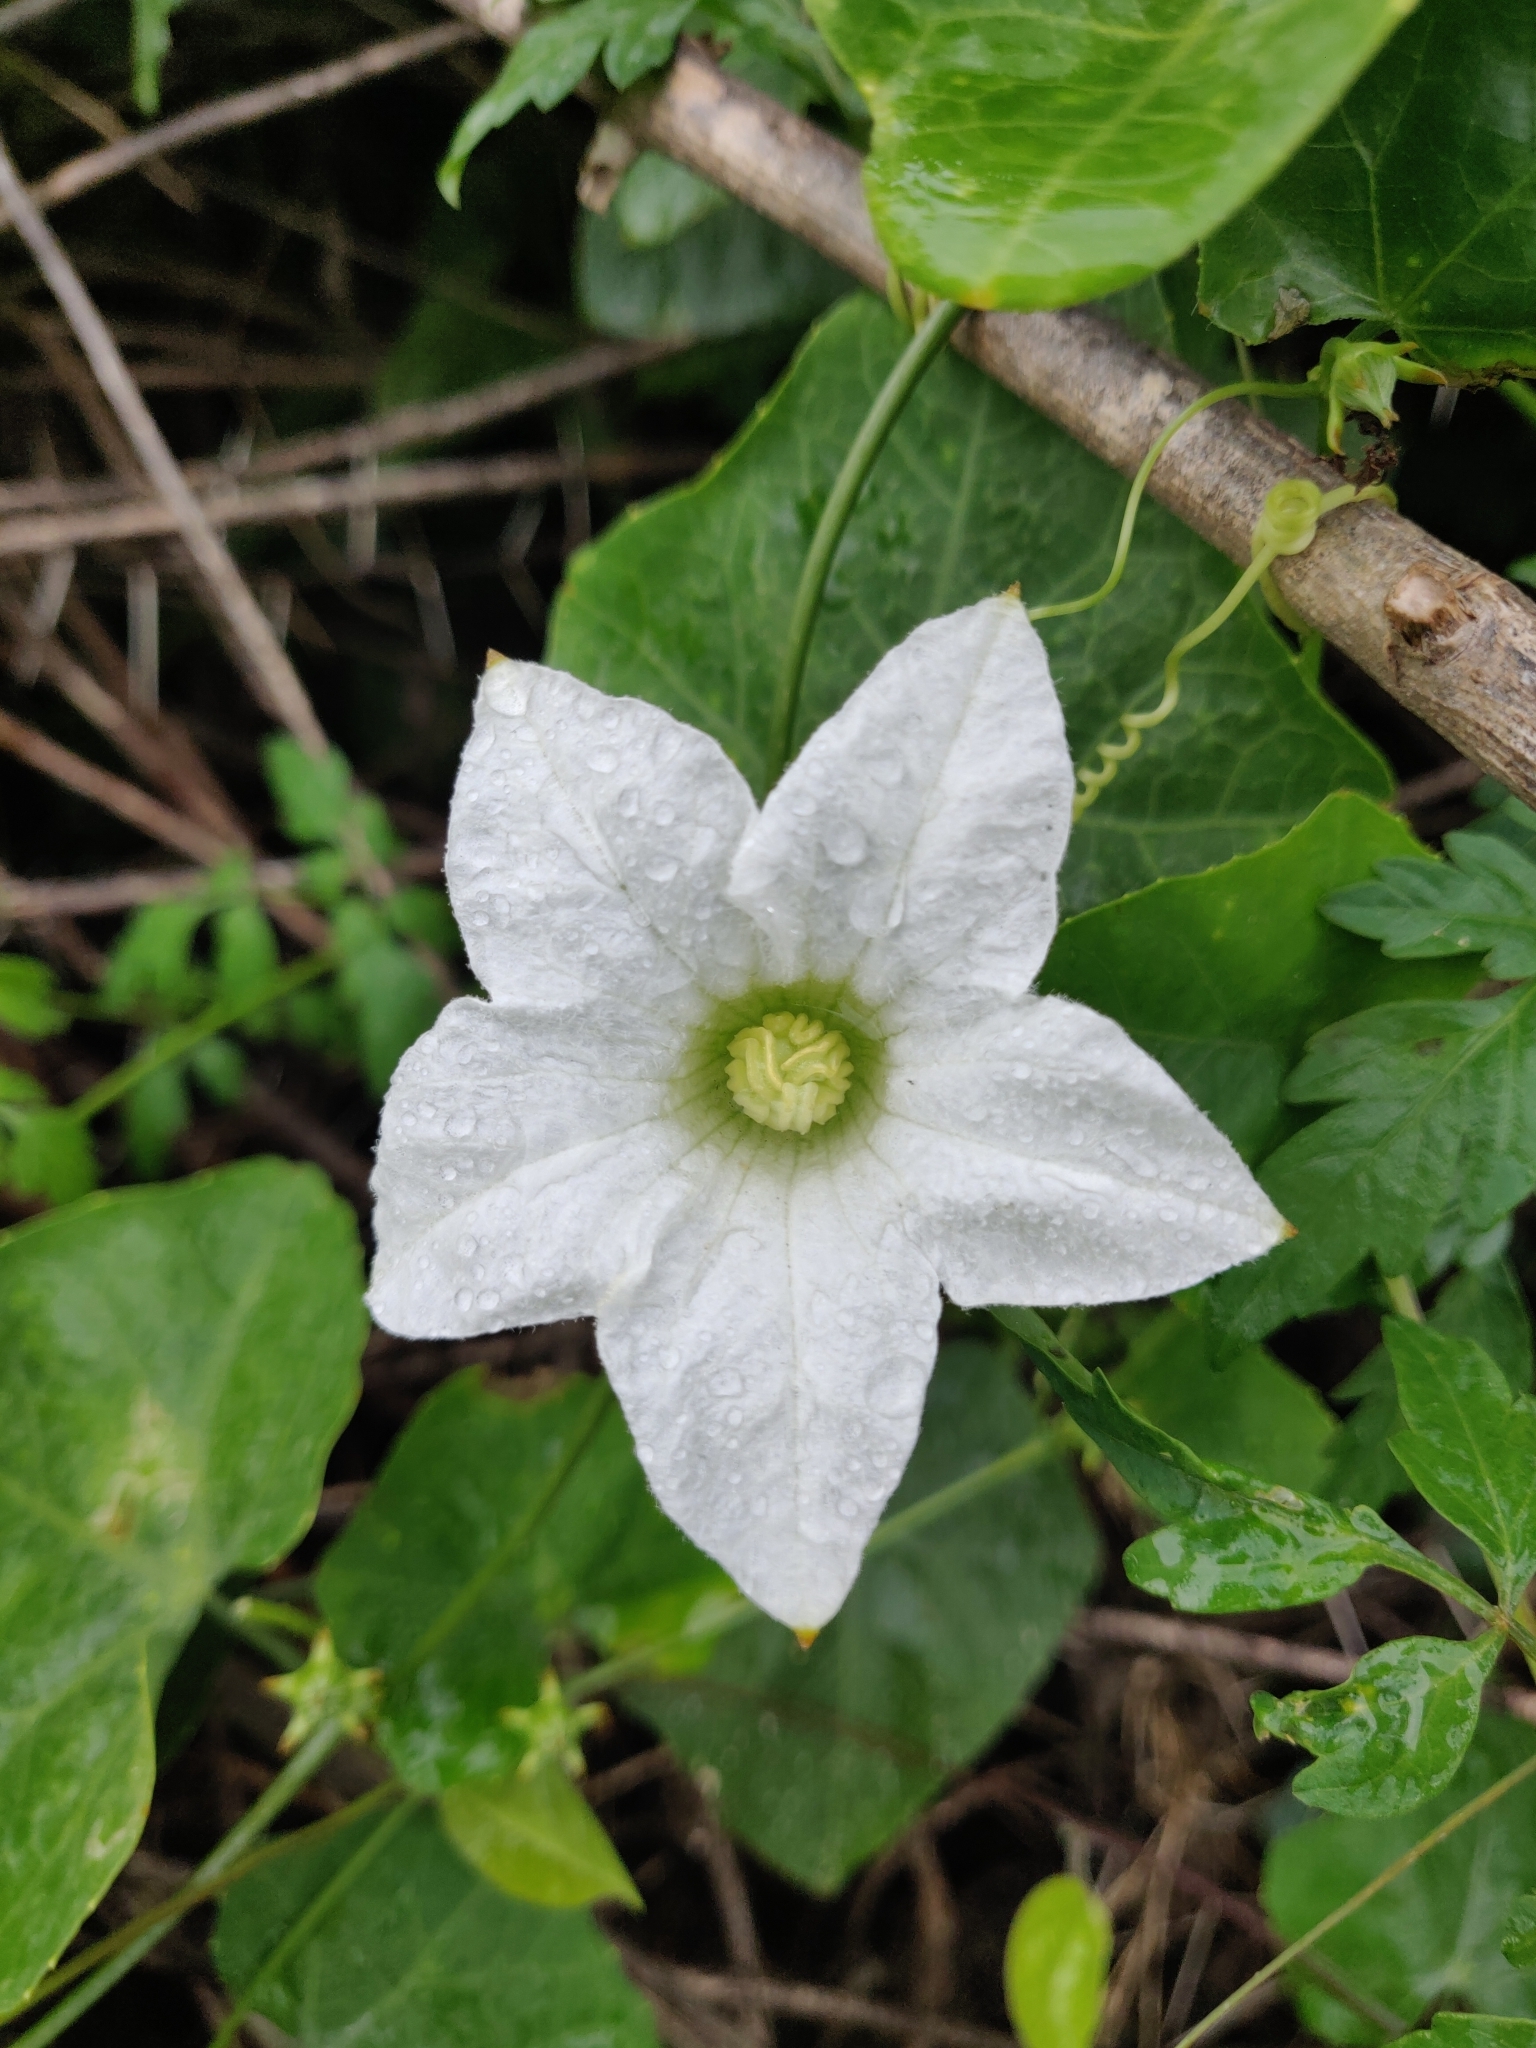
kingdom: Plantae
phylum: Tracheophyta
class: Magnoliopsida
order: Cucurbitales
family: Cucurbitaceae
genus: Coccinia
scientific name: Coccinia grandis
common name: Ivy gourd
